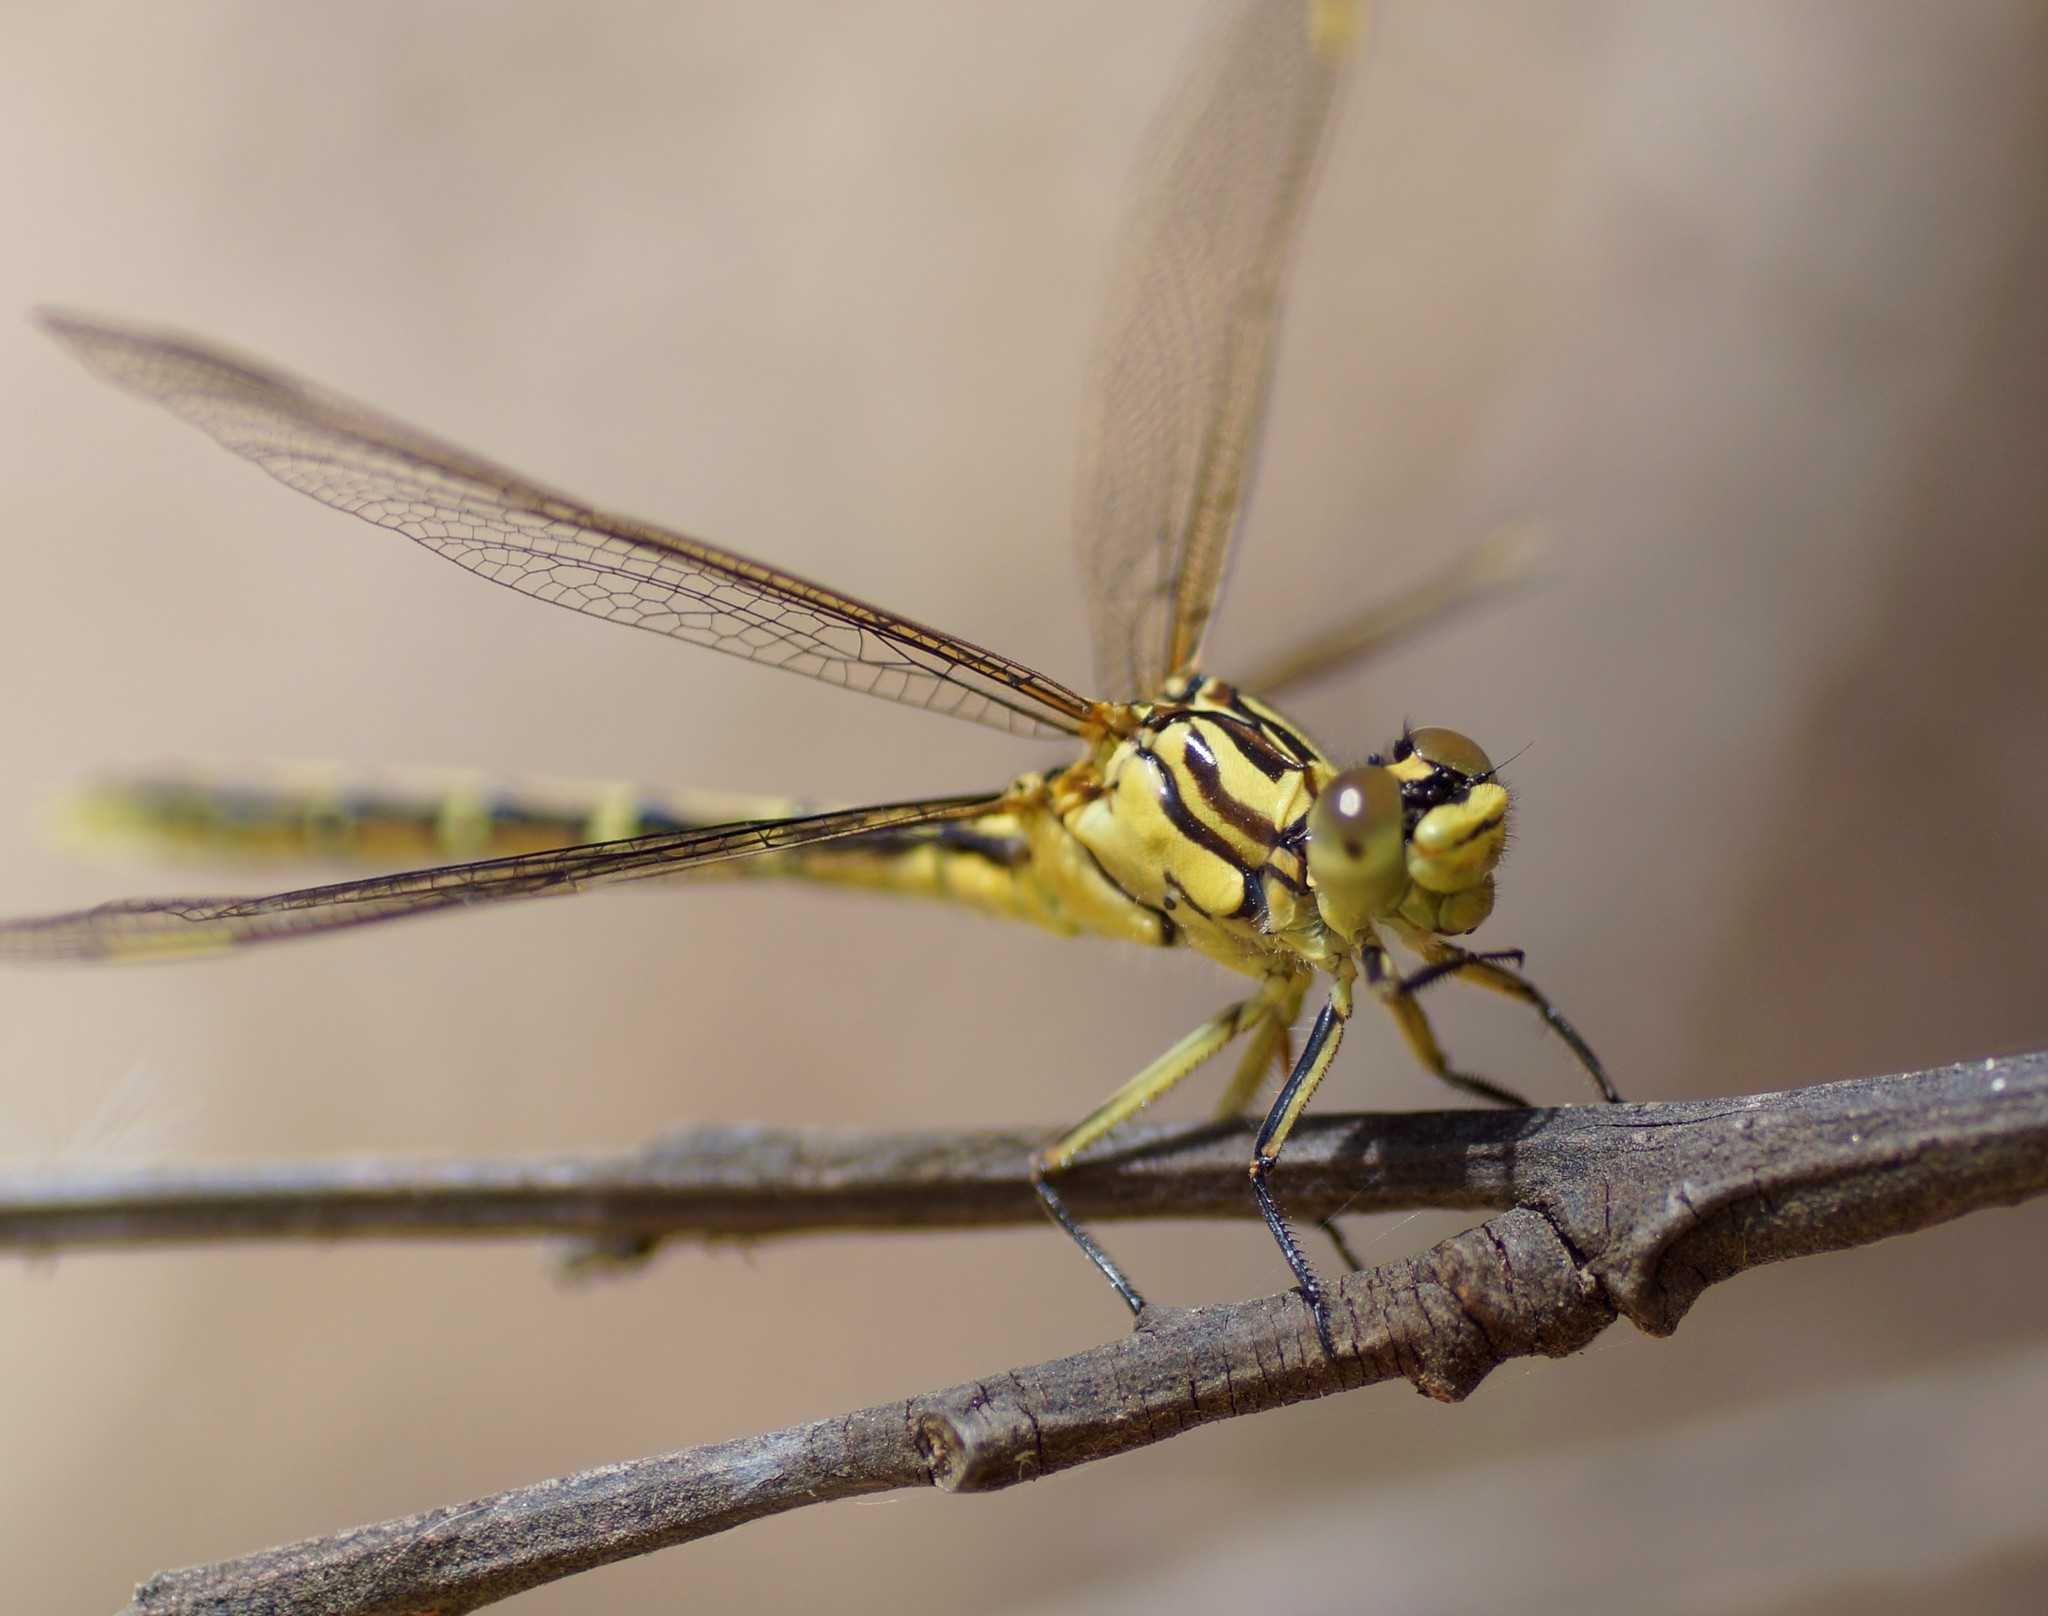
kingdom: Animalia
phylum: Arthropoda
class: Insecta
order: Odonata
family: Gomphidae
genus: Austrogomphus
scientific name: Austrogomphus guerini
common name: Yellow-striped hunter
